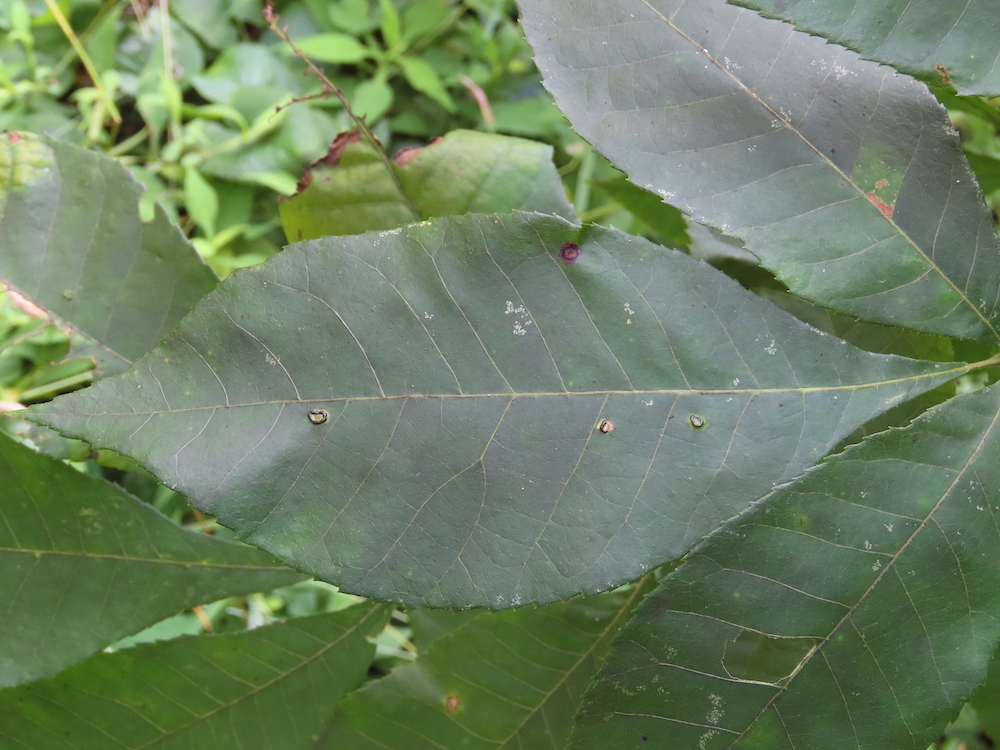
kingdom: Animalia
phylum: Arthropoda
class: Insecta
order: Diptera
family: Cecidomyiidae
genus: Gliaspilota
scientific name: Gliaspilota glutinosa
